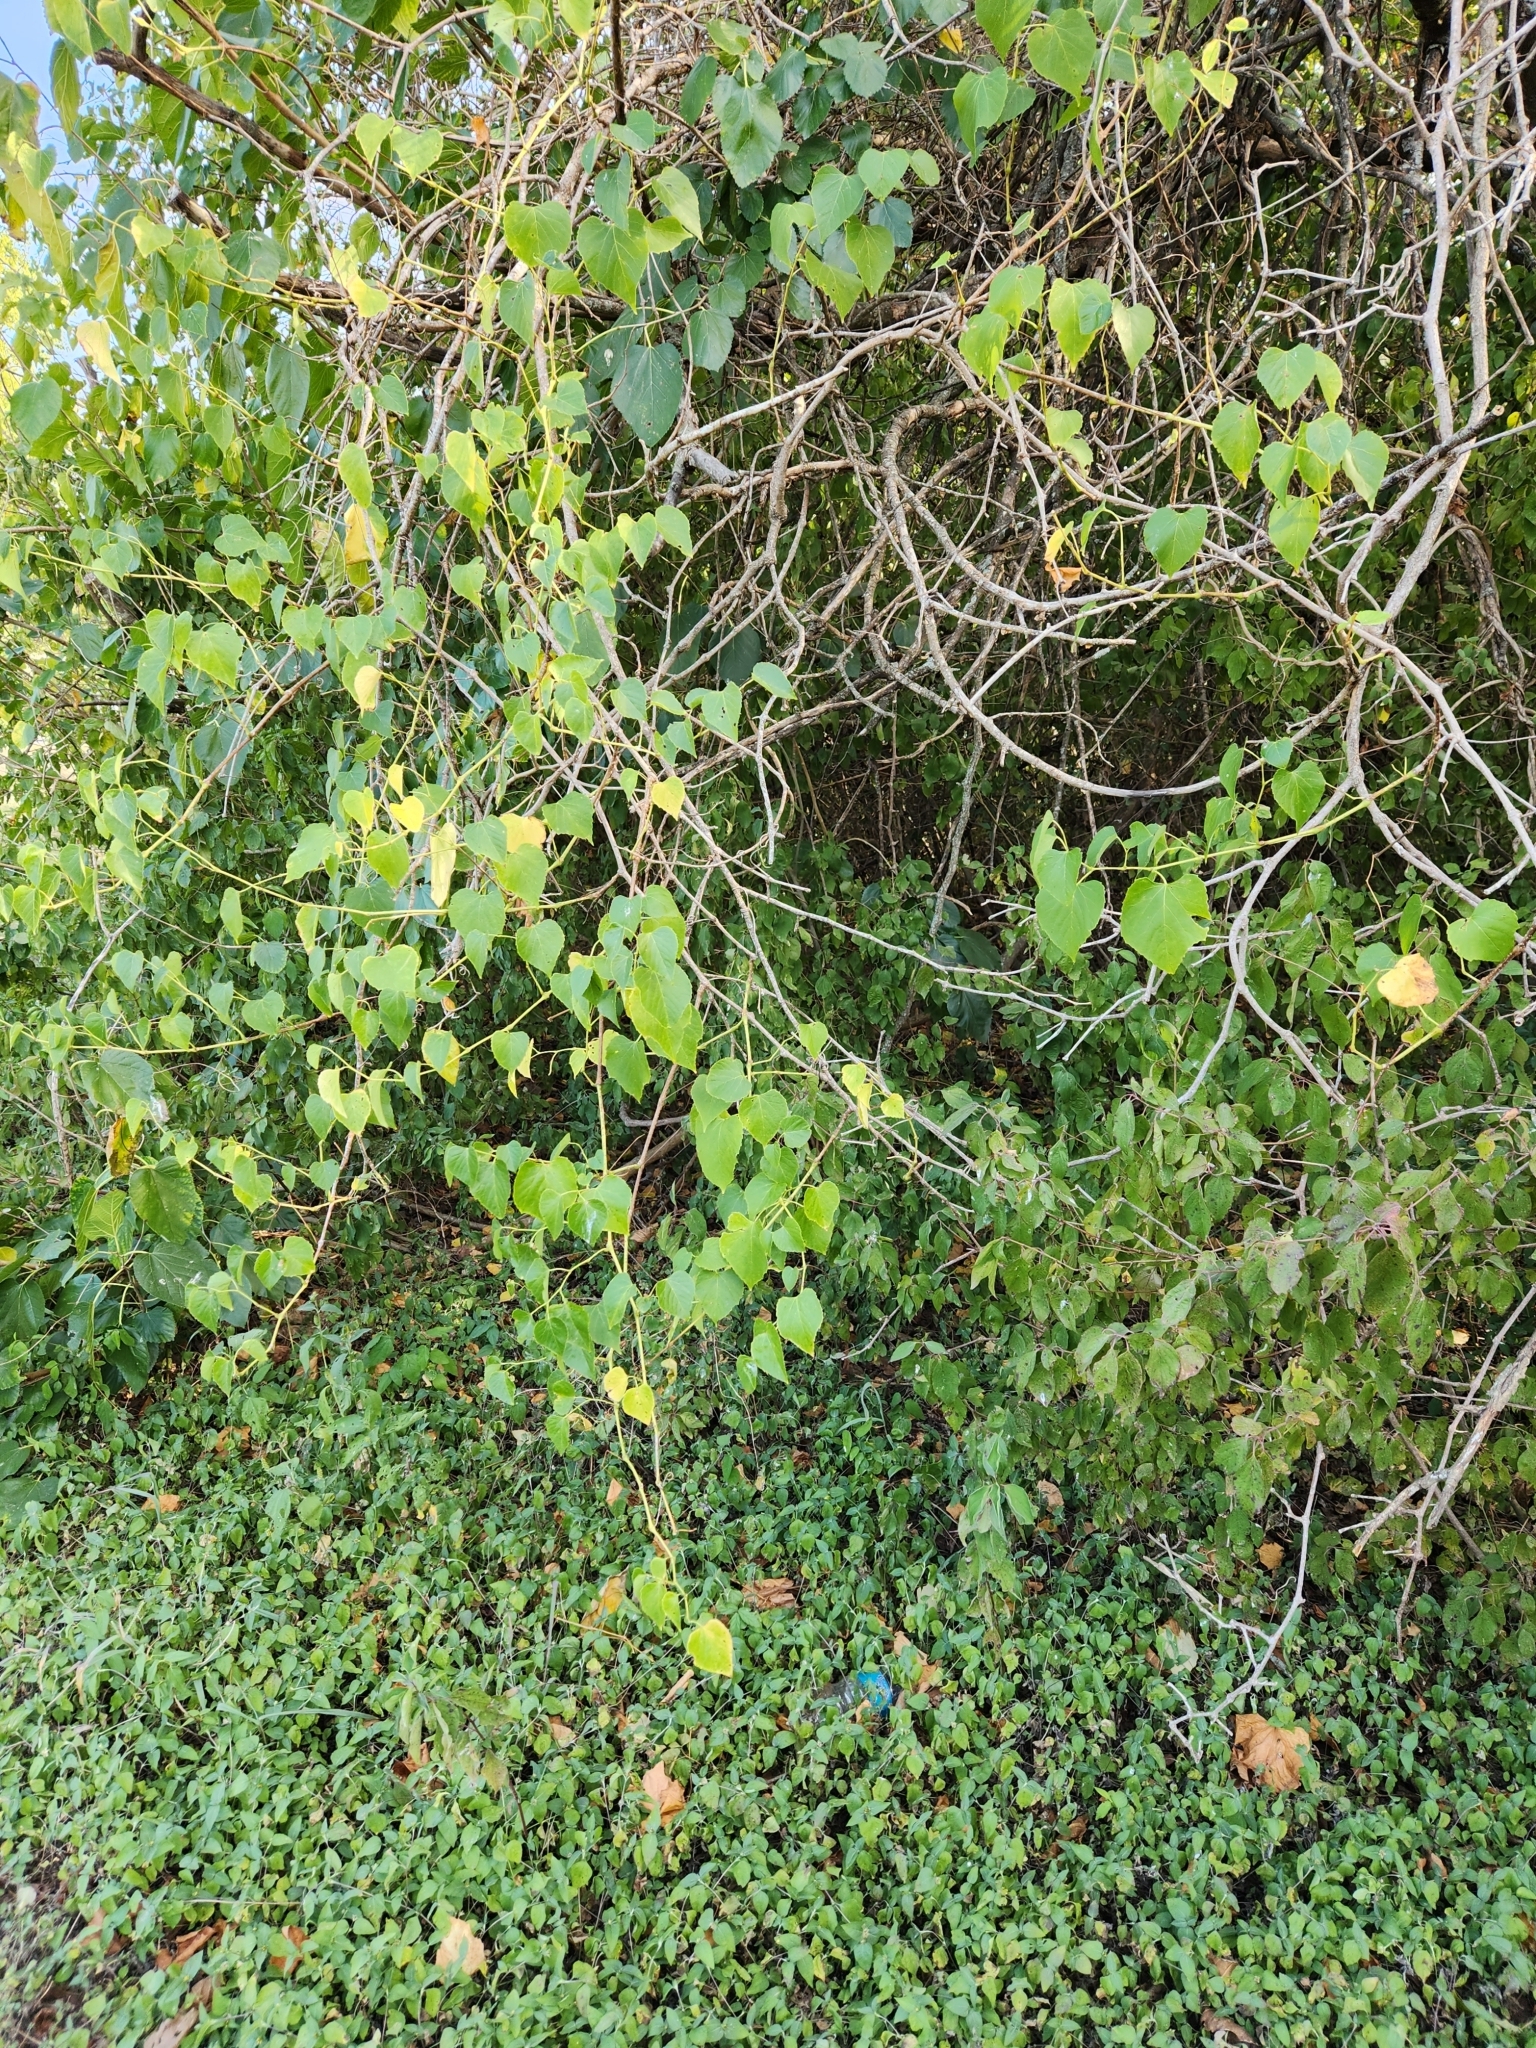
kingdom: Plantae
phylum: Tracheophyta
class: Magnoliopsida
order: Vitales
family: Vitaceae
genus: Ampelopsis
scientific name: Ampelopsis cordata
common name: Heart-leaf ampelopsis
